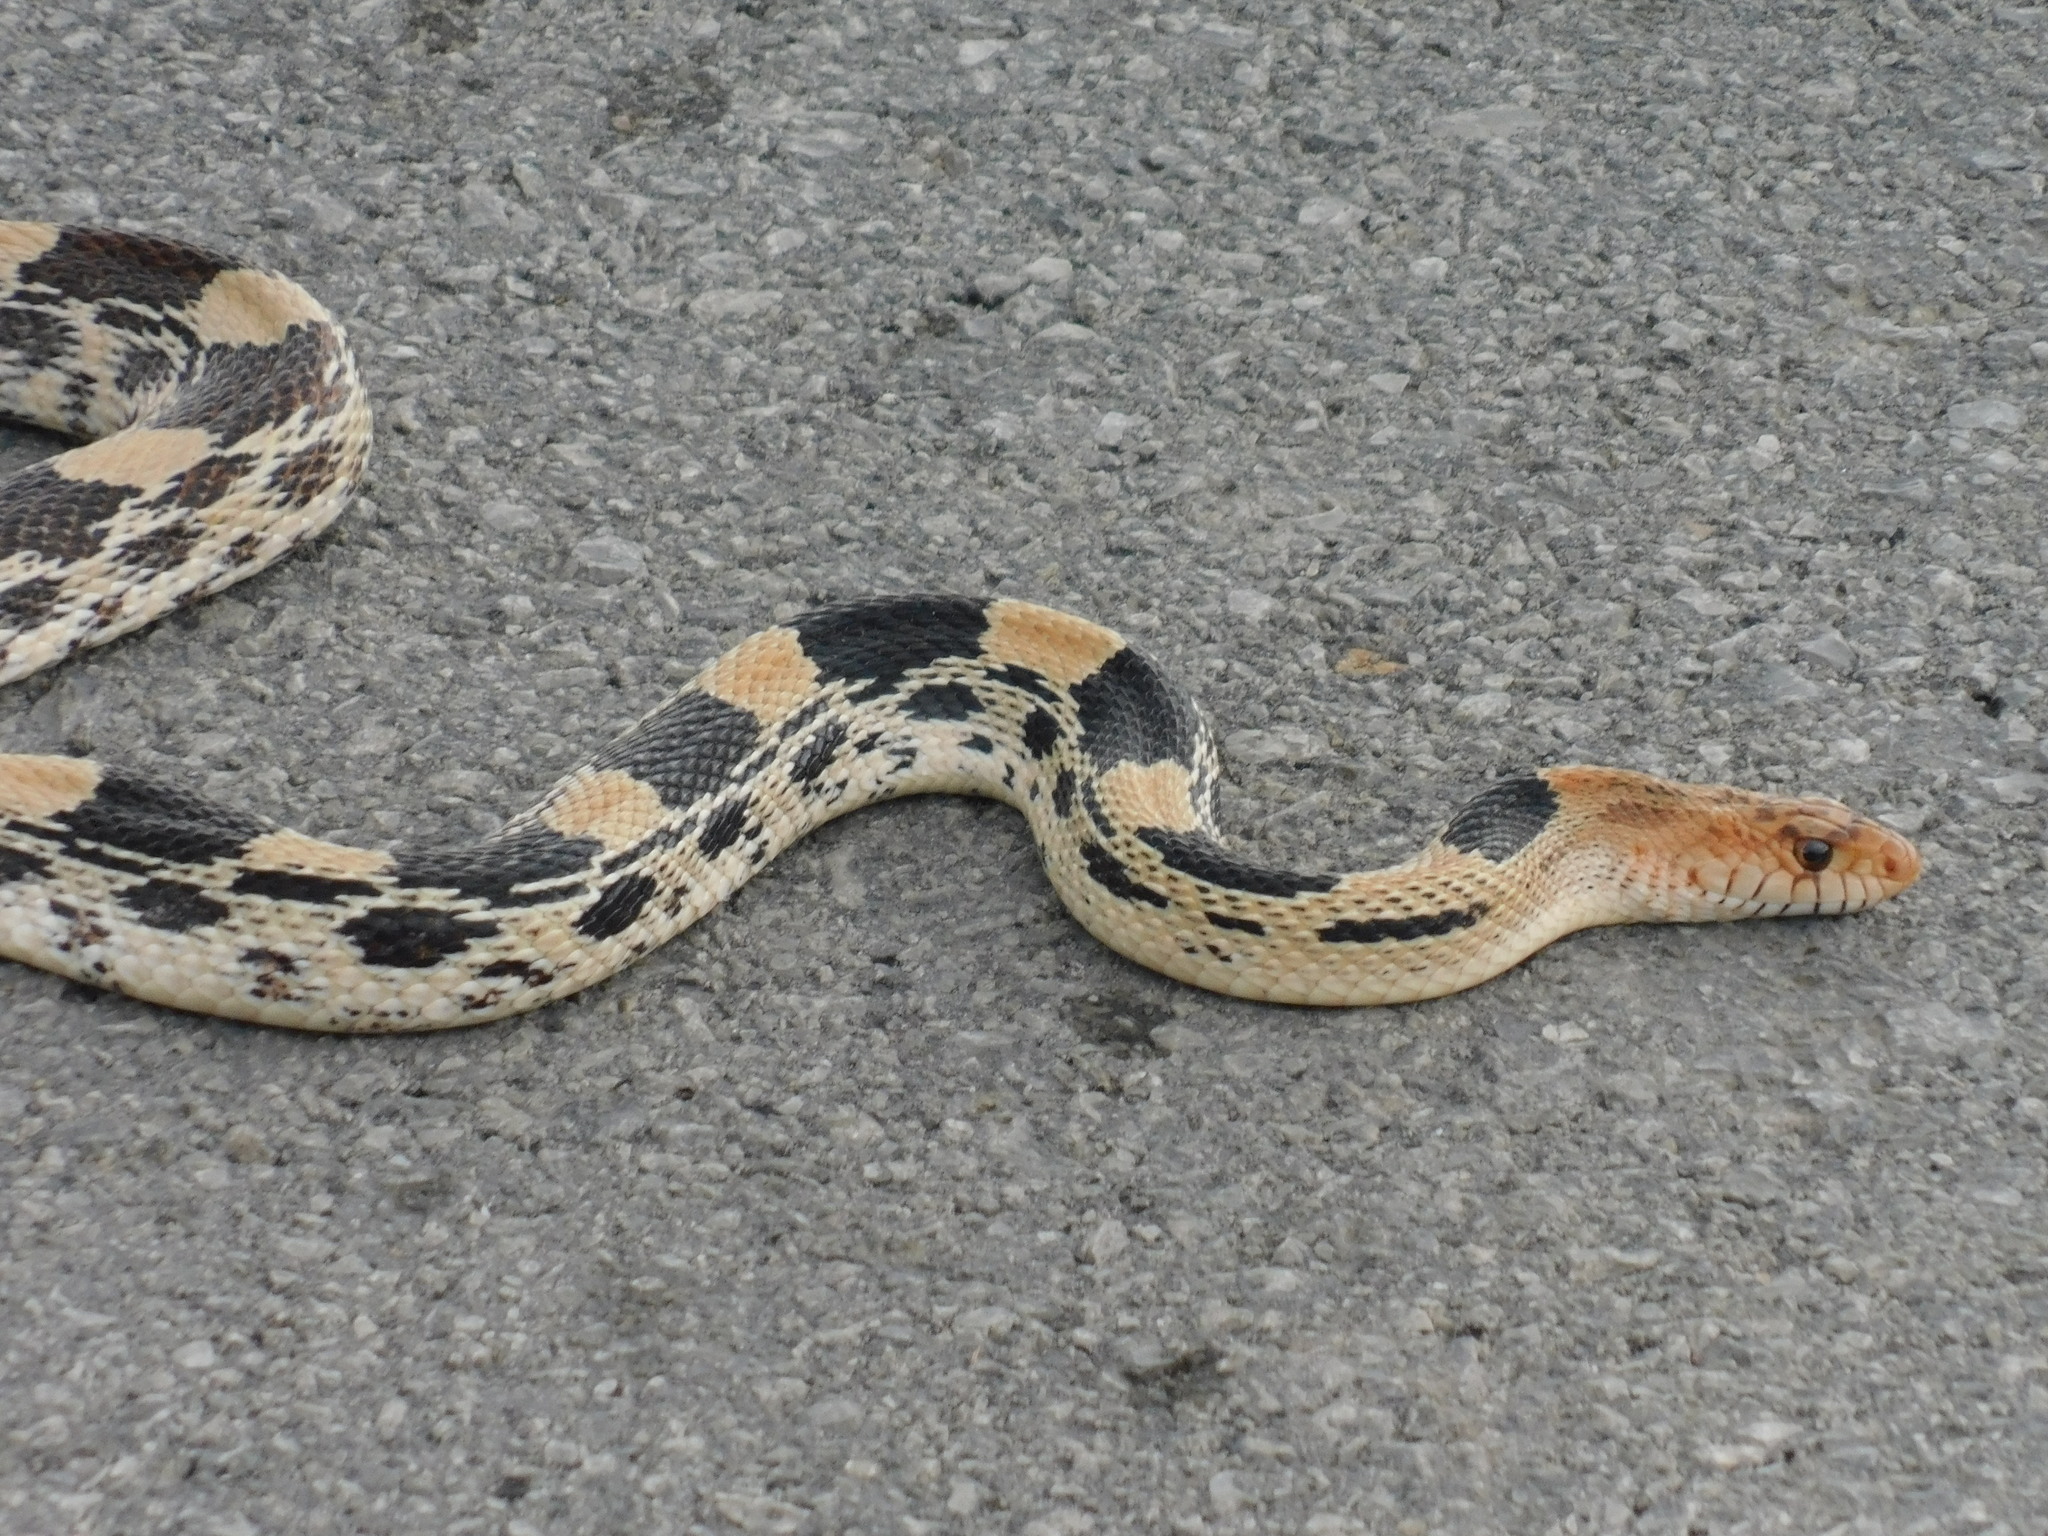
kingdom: Animalia
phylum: Chordata
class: Squamata
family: Colubridae
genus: Pituophis
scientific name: Pituophis deppei
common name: Mexican bull snake
